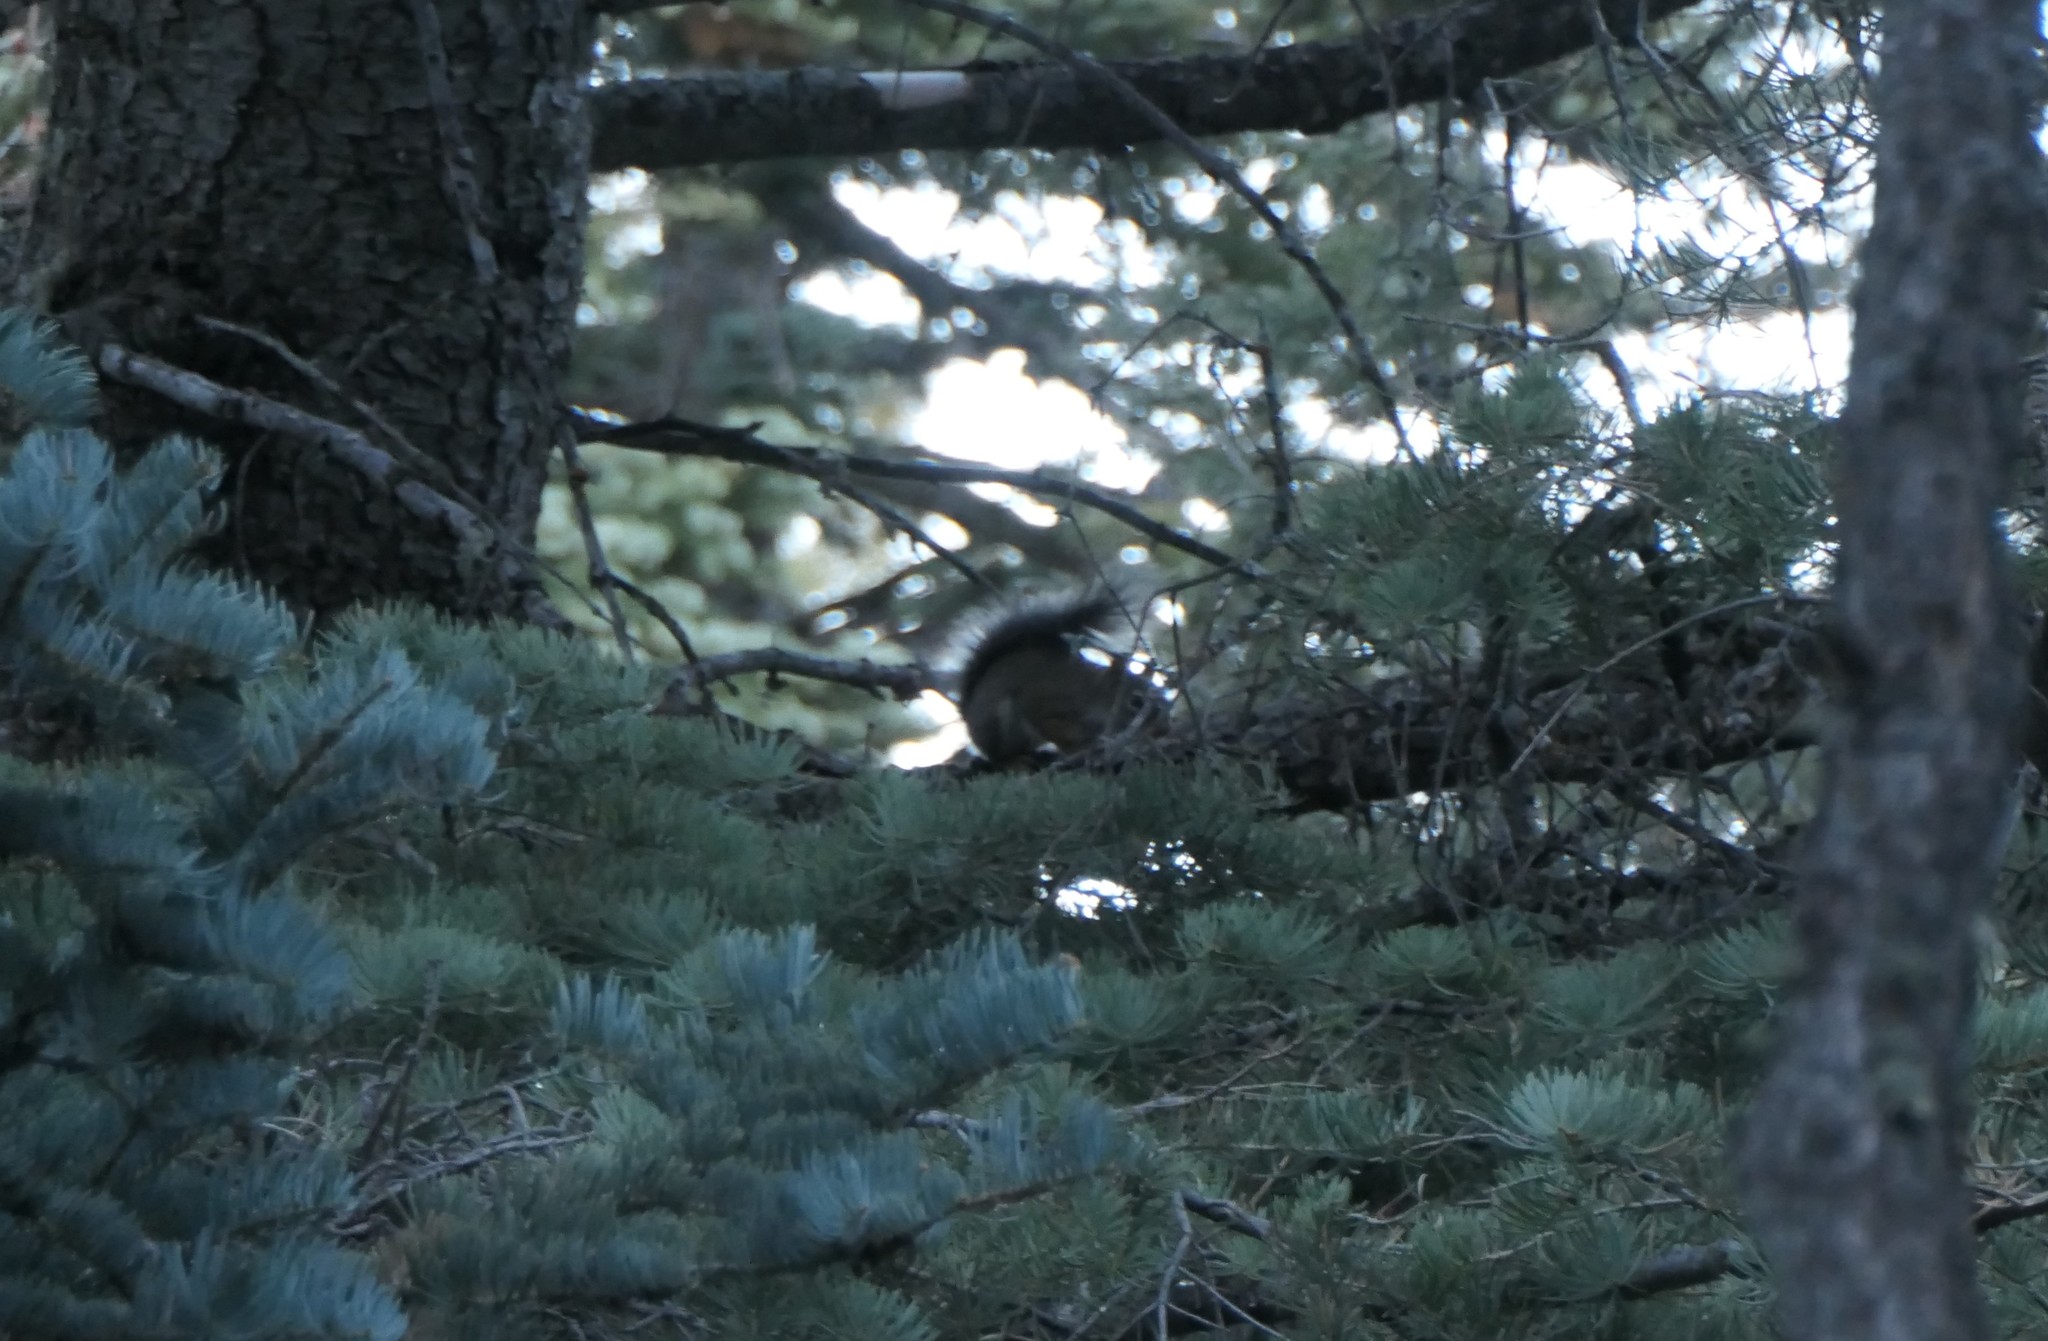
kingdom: Animalia
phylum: Chordata
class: Mammalia
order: Rodentia
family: Sciuridae
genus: Tamiasciurus
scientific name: Tamiasciurus hudsonicus
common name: Red squirrel
